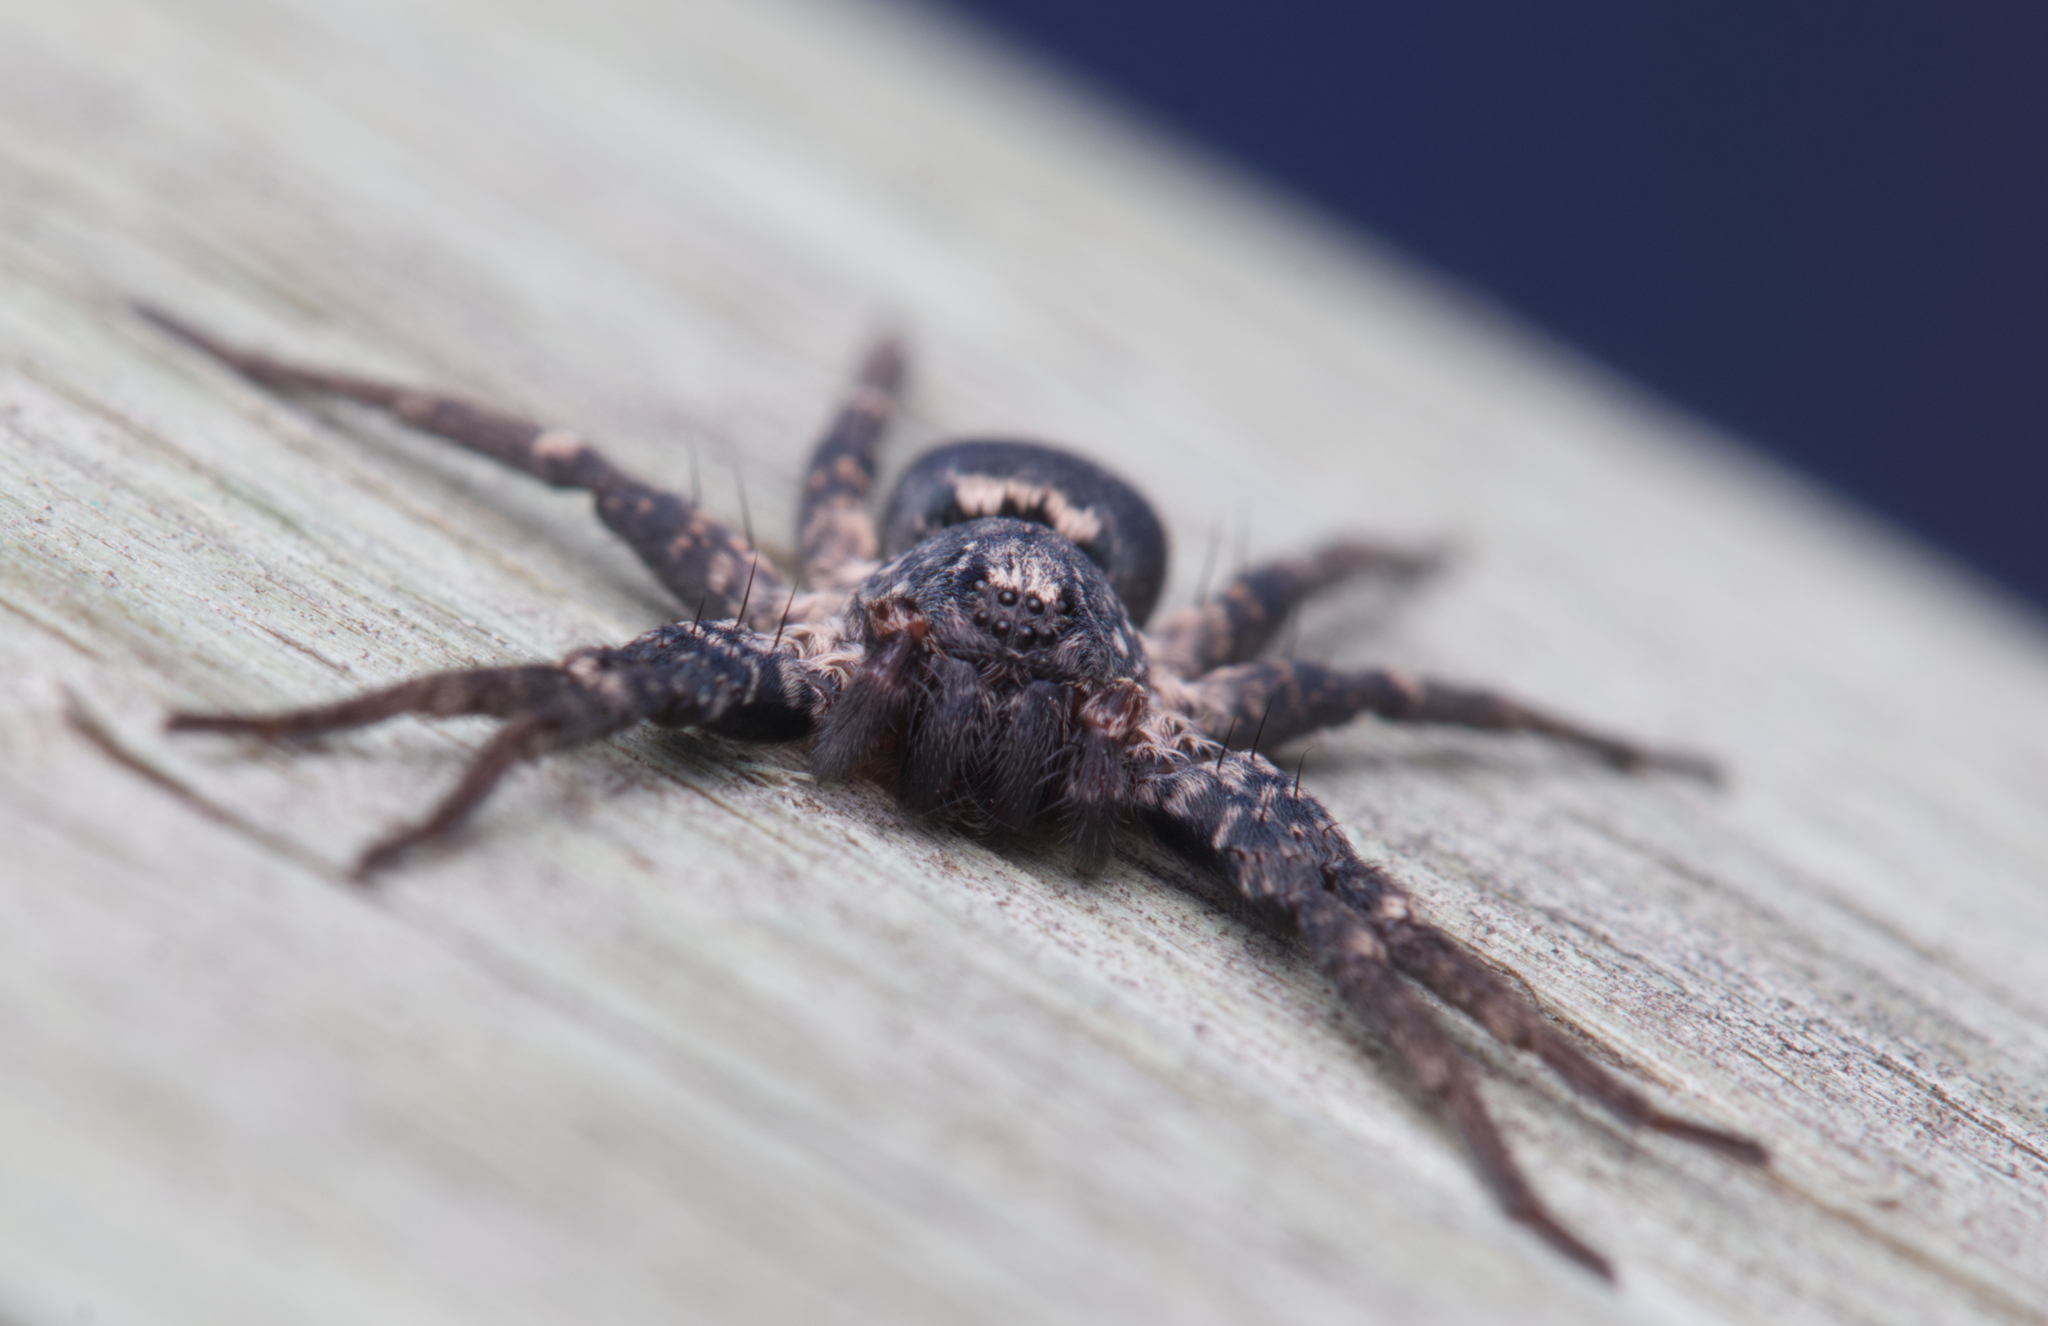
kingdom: Animalia
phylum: Arthropoda
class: Arachnida
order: Araneae
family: Miturgidae
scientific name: Miturgidae
